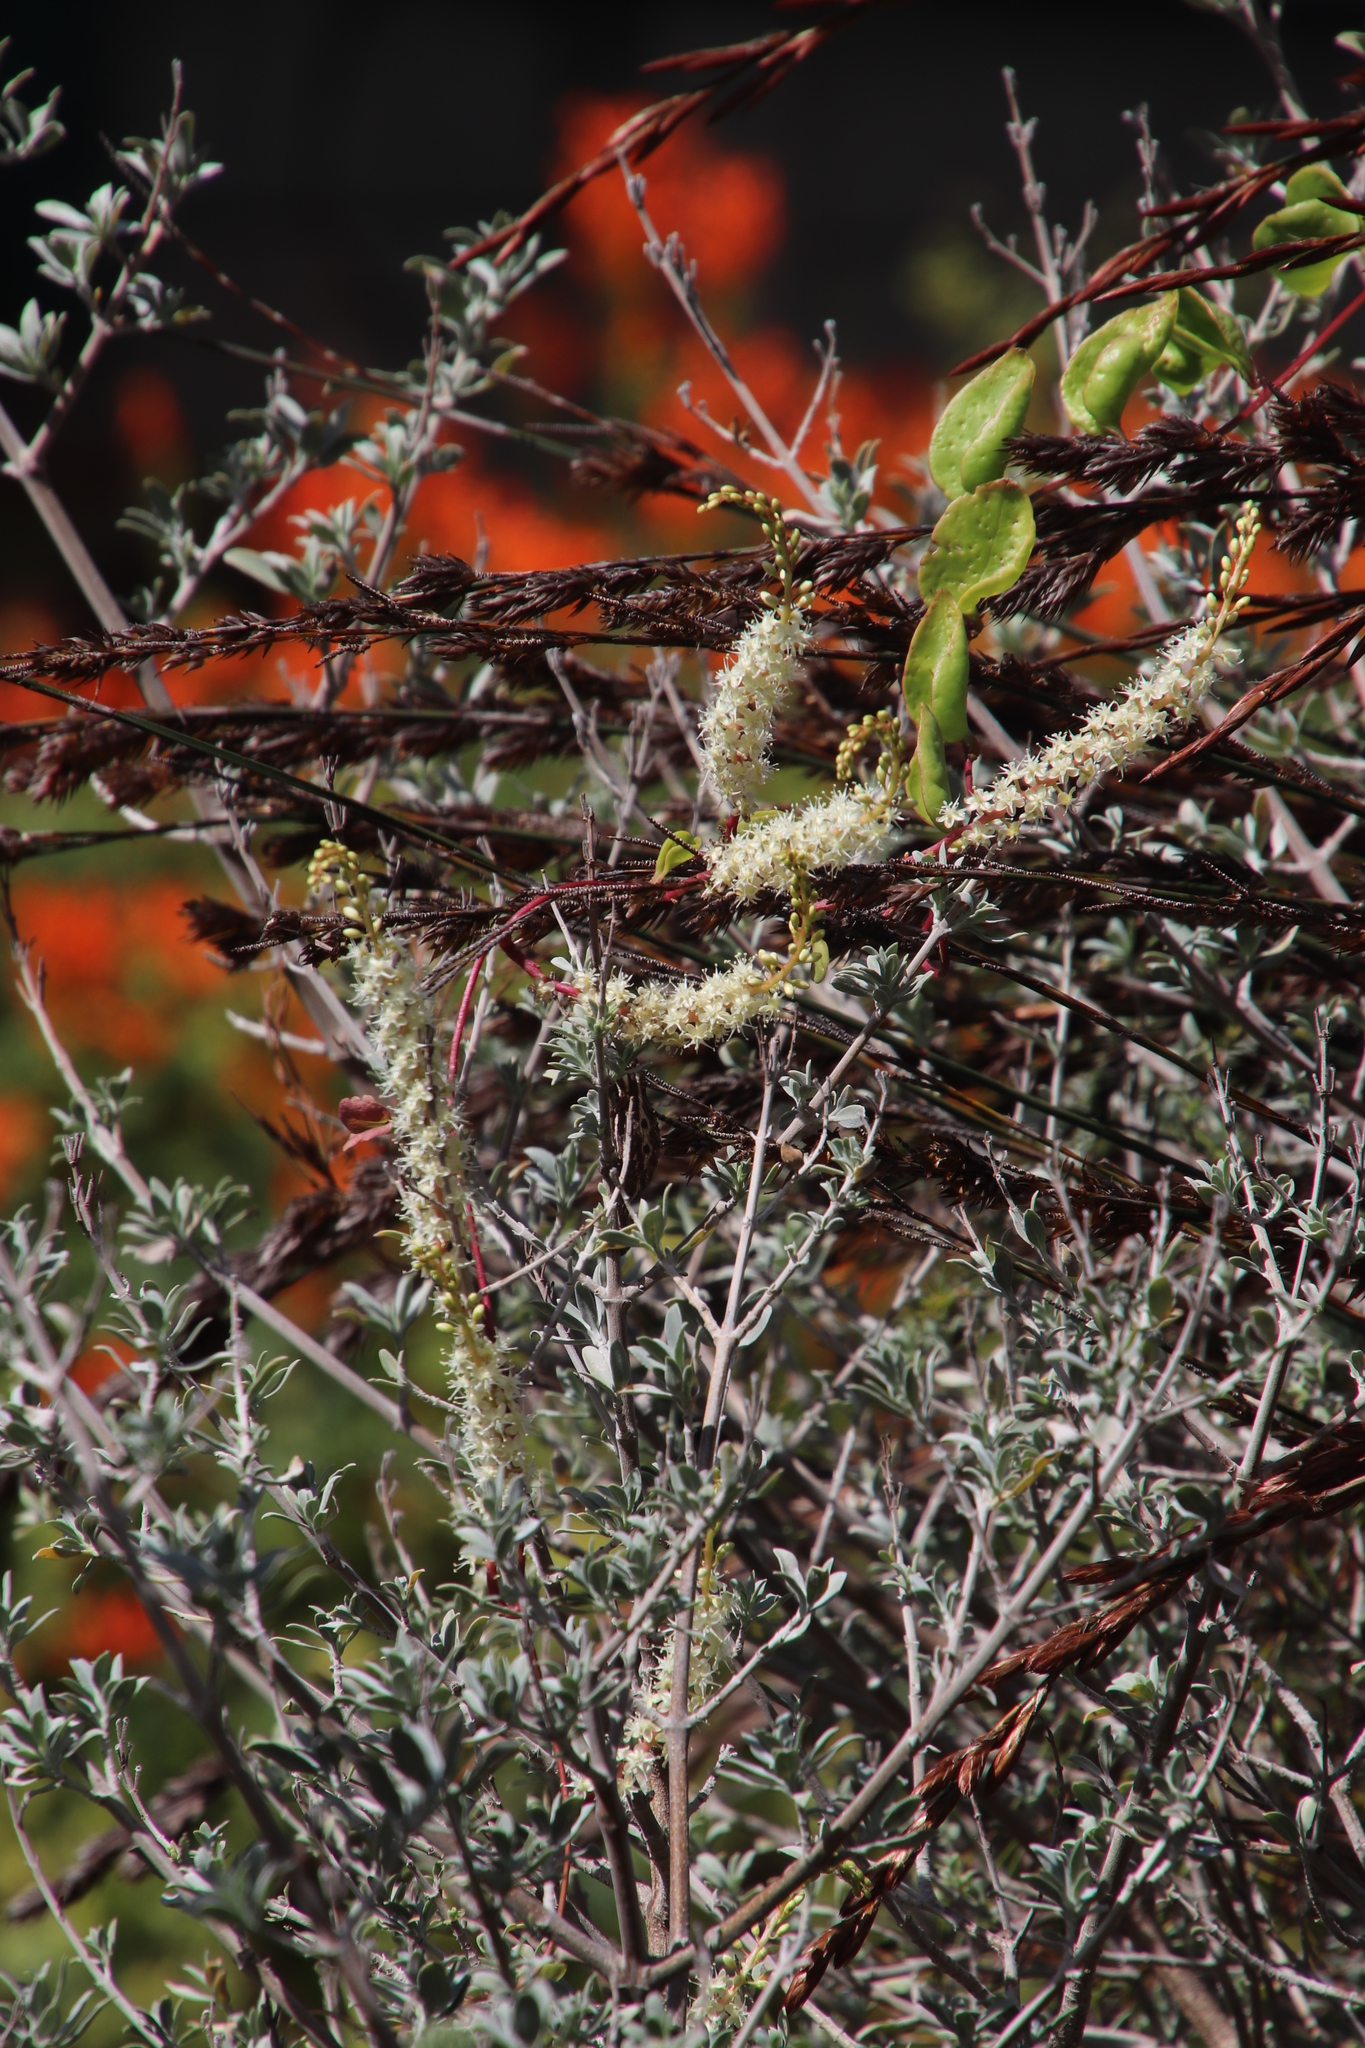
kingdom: Plantae
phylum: Tracheophyta
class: Magnoliopsida
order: Caryophyllales
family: Basellaceae
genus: Anredera
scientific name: Anredera cordifolia
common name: Heartleaf madeiravine
